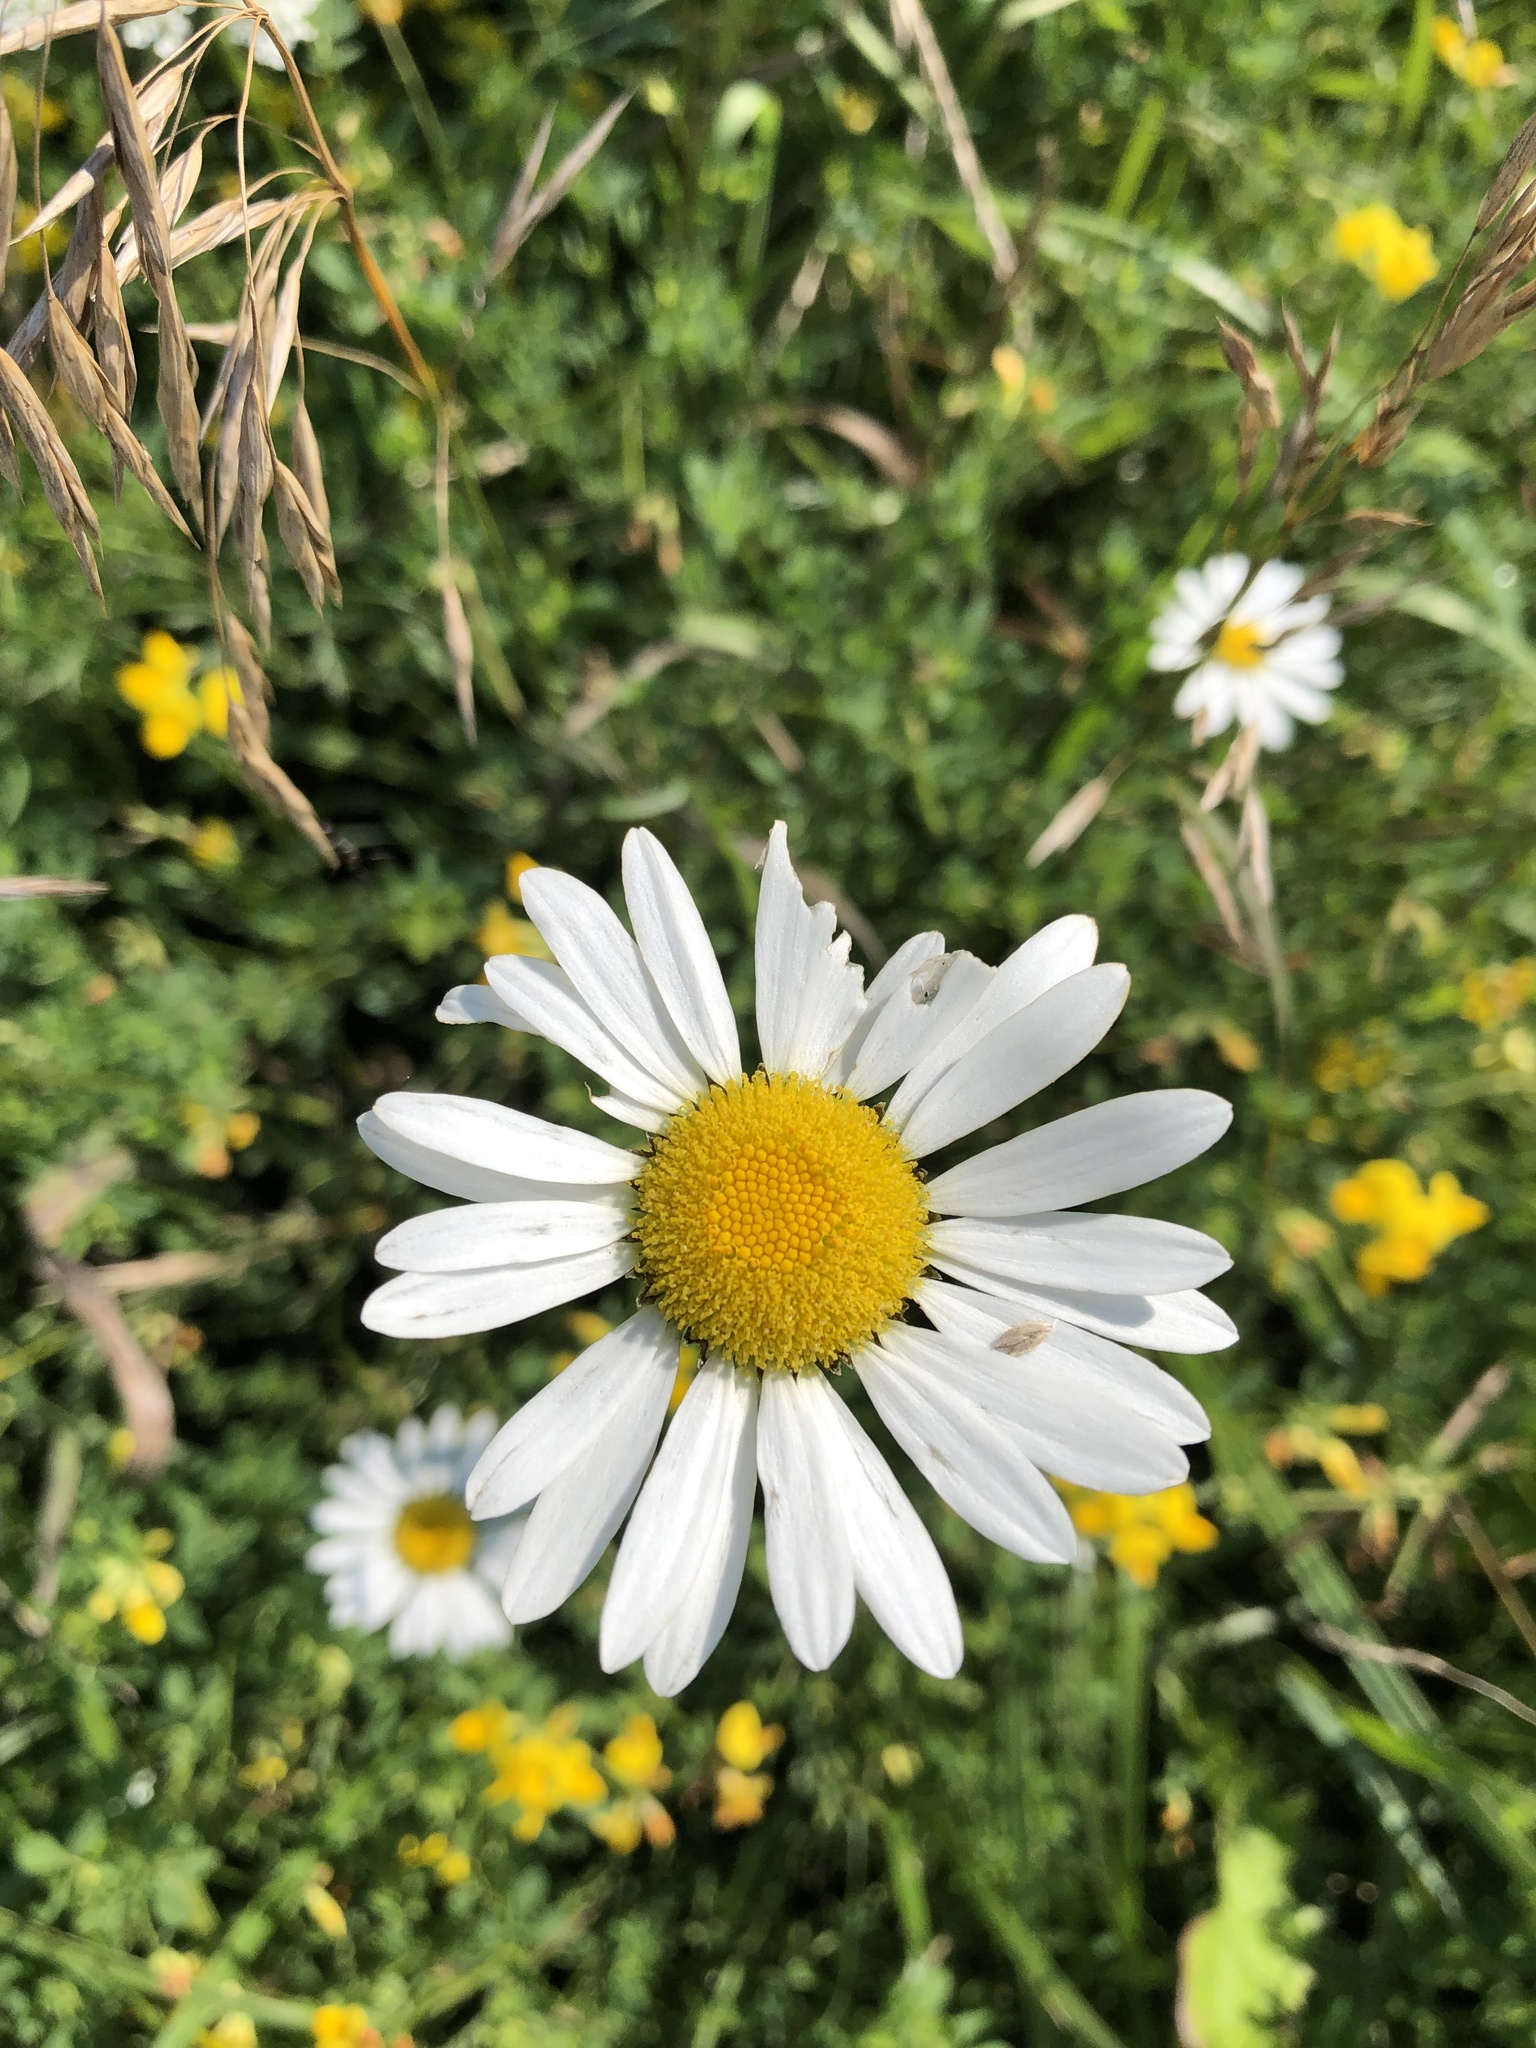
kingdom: Plantae
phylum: Tracheophyta
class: Magnoliopsida
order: Asterales
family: Asteraceae
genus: Leucanthemum
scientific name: Leucanthemum vulgare
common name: Oxeye daisy
